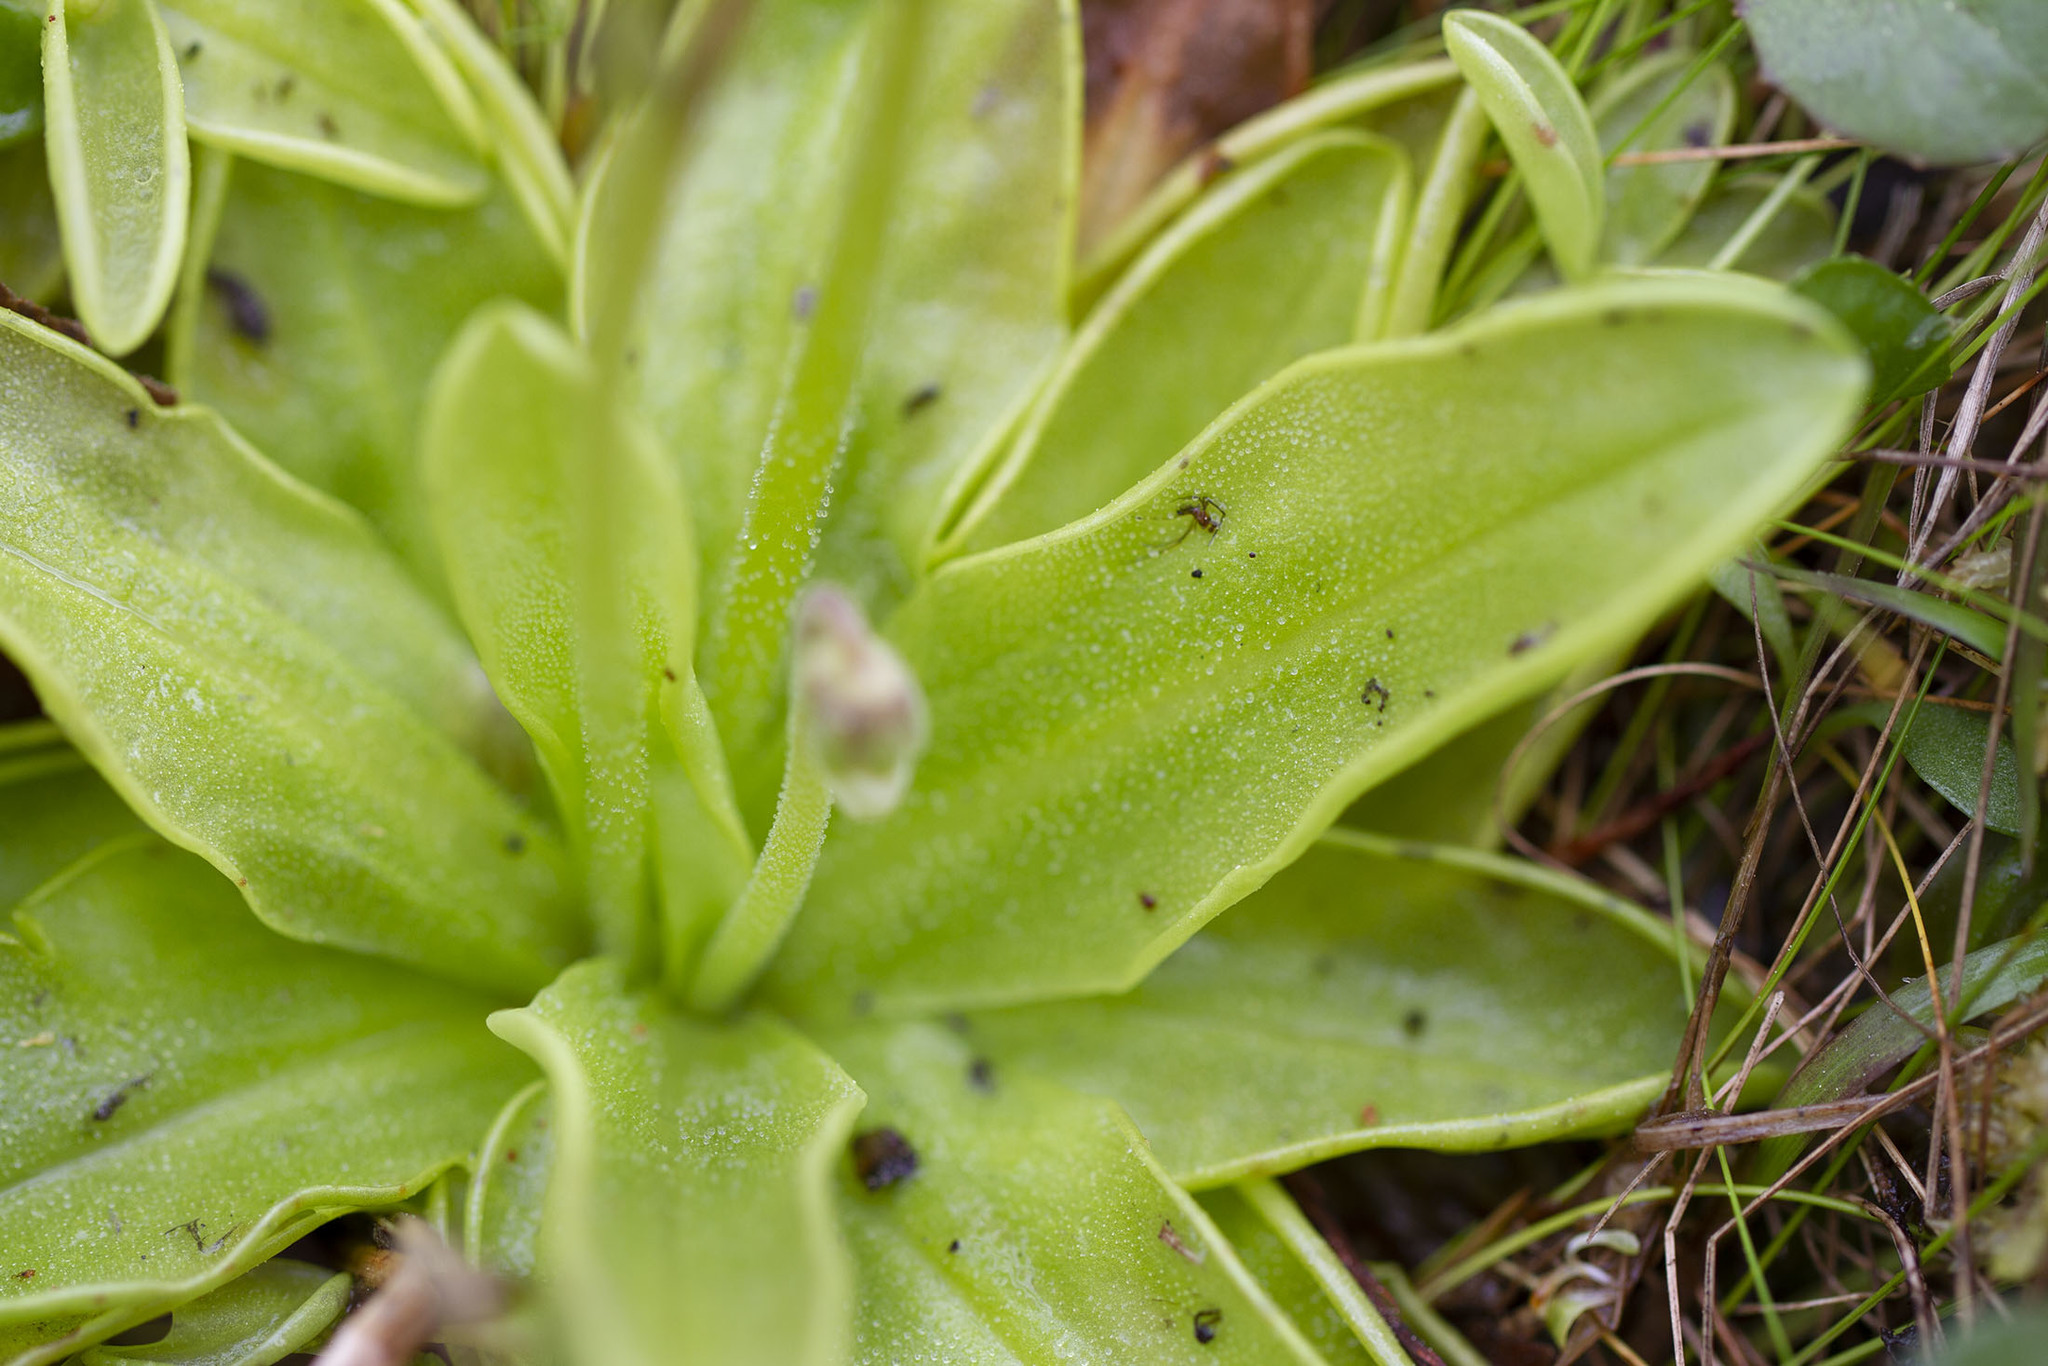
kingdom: Plantae
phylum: Tracheophyta
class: Magnoliopsida
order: Lamiales
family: Lentibulariaceae
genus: Pinguicula
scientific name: Pinguicula primuliflora
